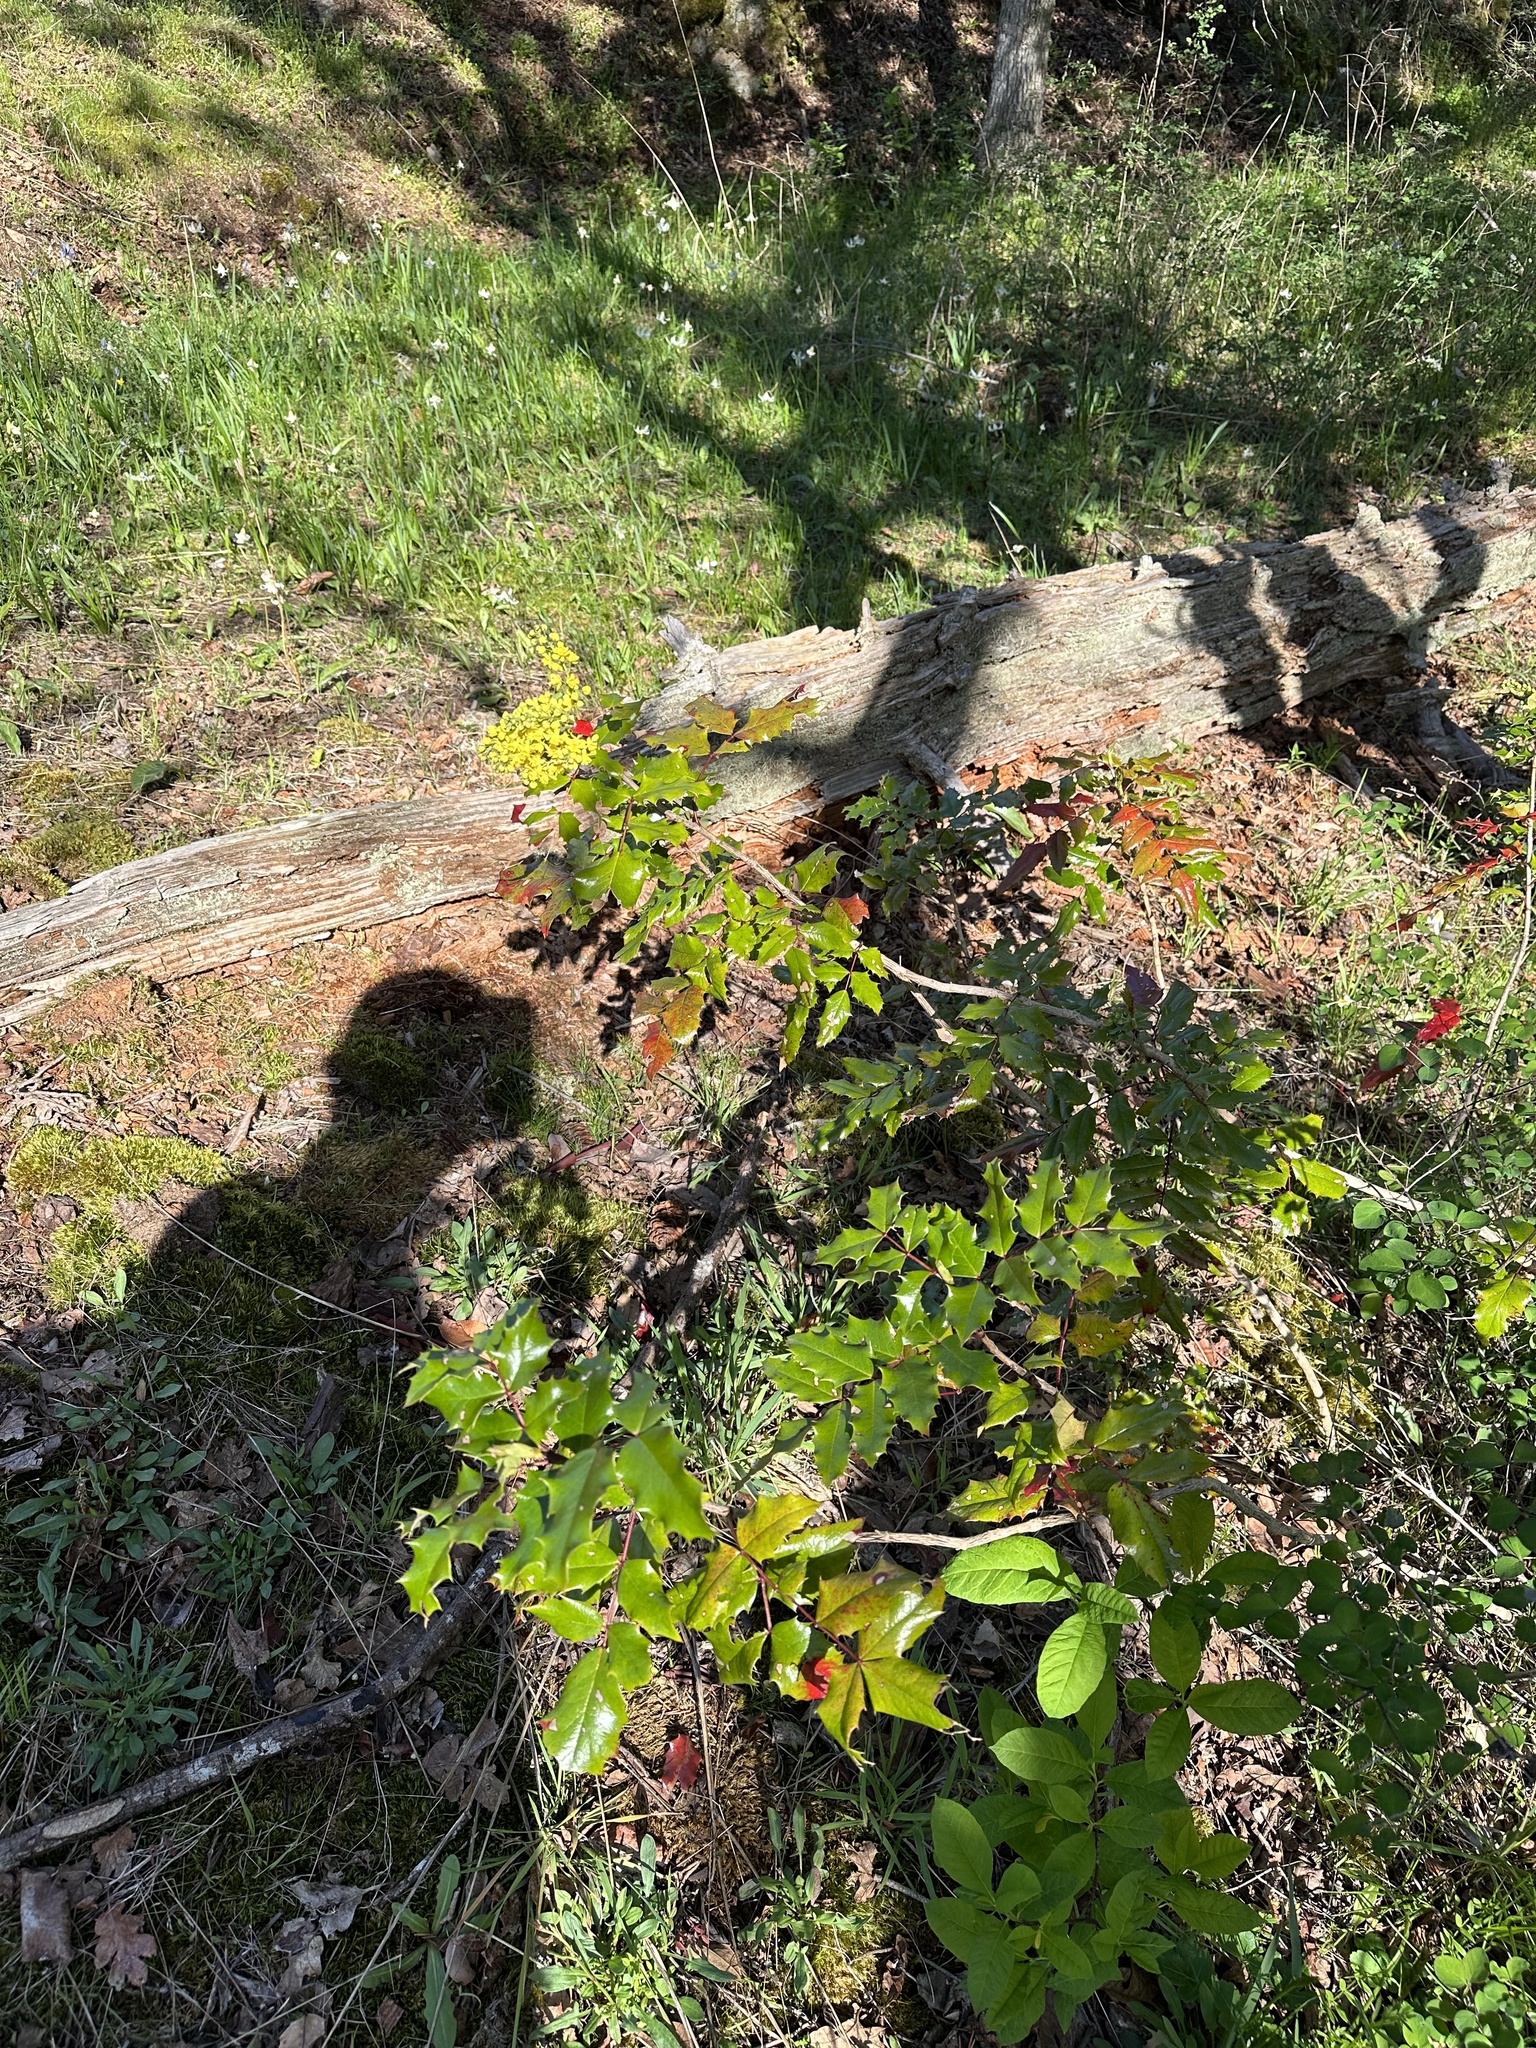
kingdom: Plantae
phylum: Tracheophyta
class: Magnoliopsida
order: Ranunculales
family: Berberidaceae
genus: Mahonia
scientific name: Mahonia aquifolium
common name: Oregon-grape
